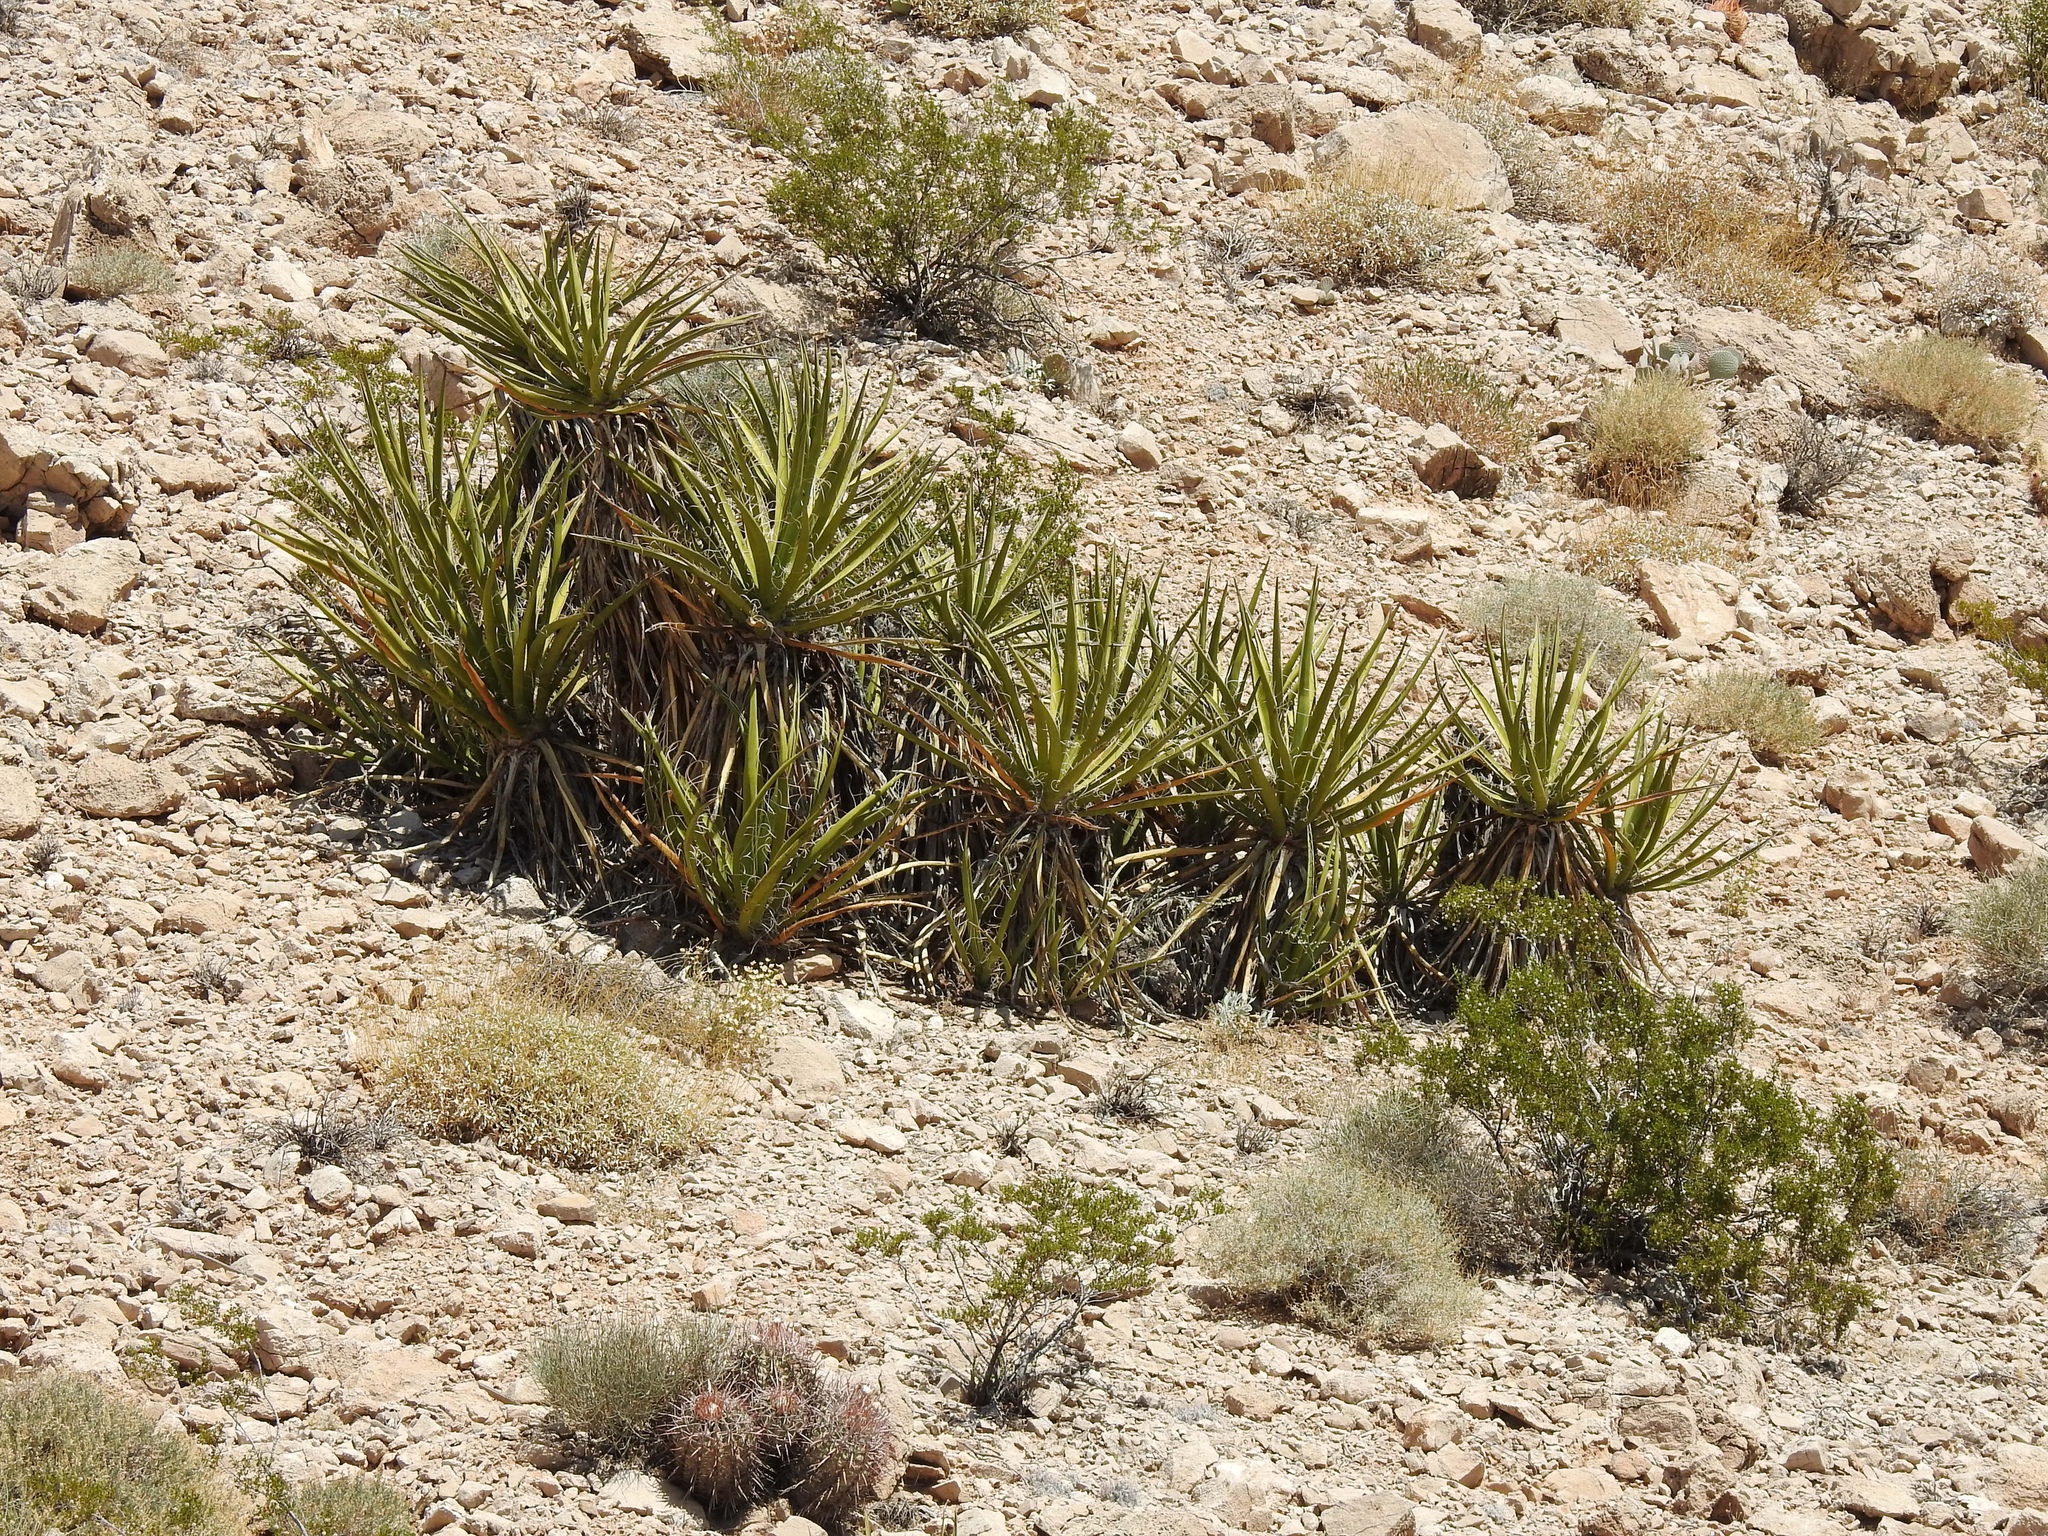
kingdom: Plantae
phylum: Tracheophyta
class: Liliopsida
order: Asparagales
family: Asparagaceae
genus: Yucca
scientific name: Yucca schidigera
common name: Mojave yucca
